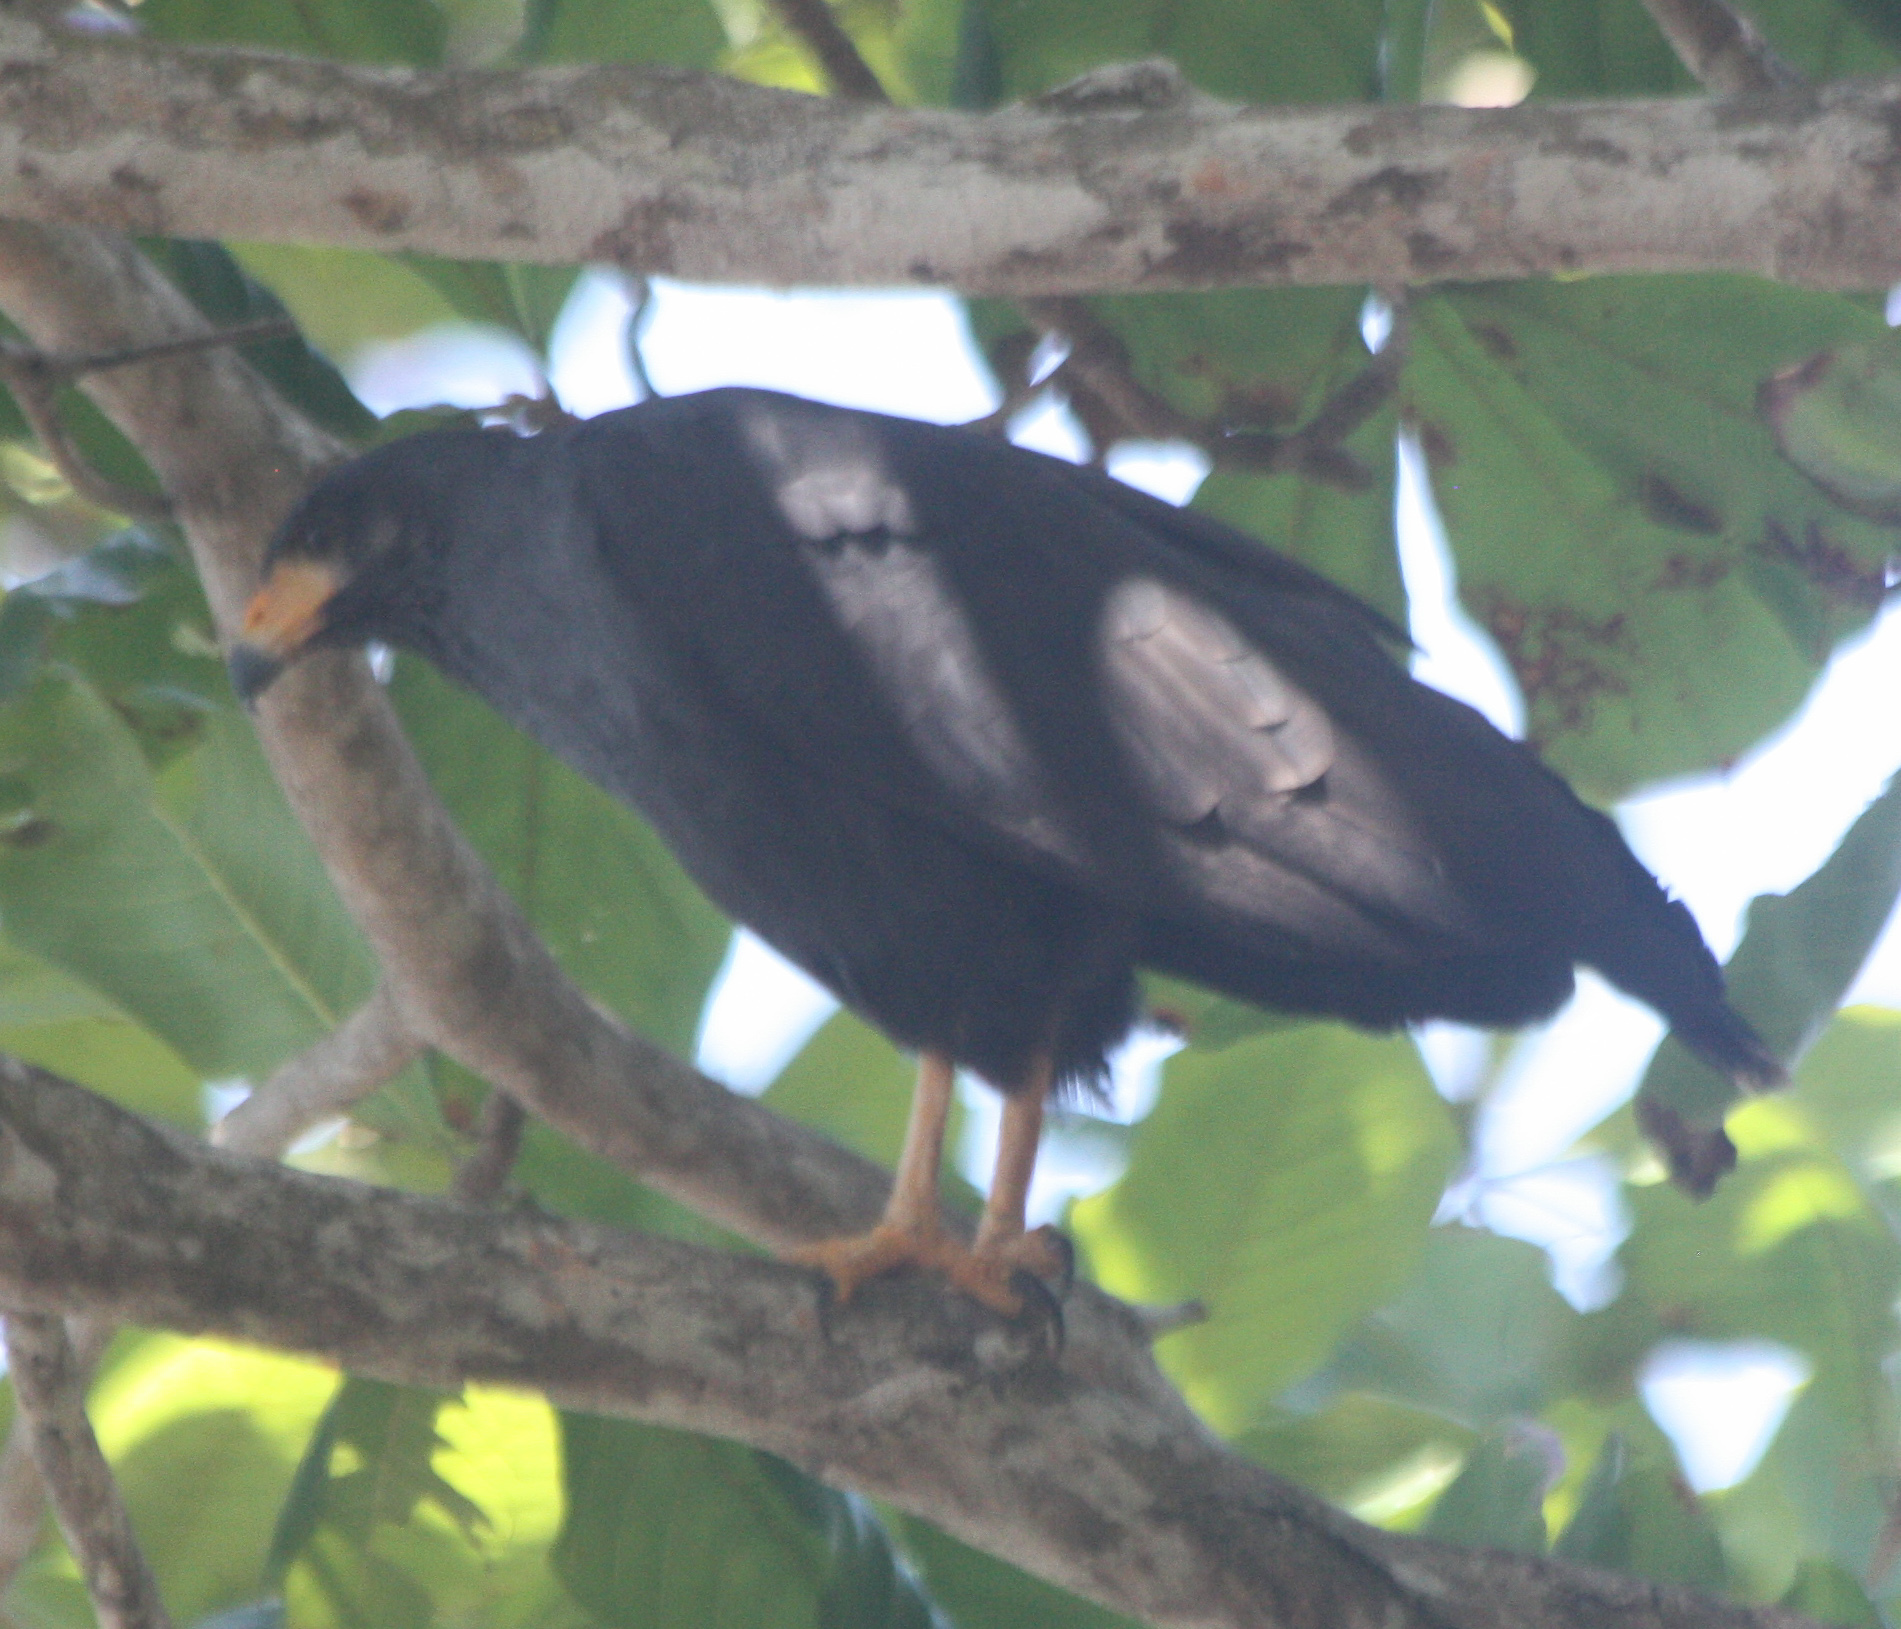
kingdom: Animalia
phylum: Chordata
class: Aves
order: Accipitriformes
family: Accipitridae
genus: Buteogallus
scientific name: Buteogallus anthracinus
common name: Common black hawk
